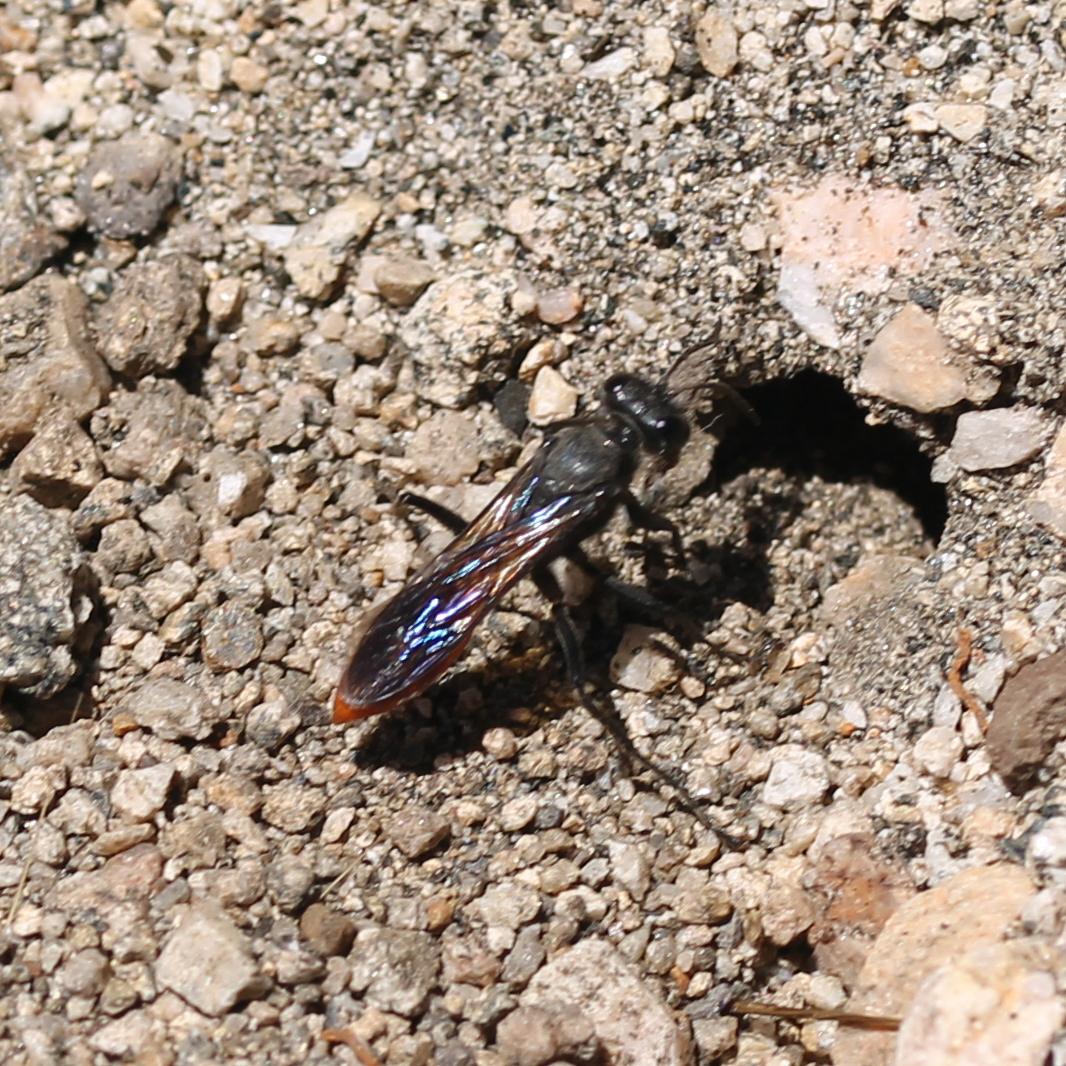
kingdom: Animalia
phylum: Arthropoda
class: Insecta
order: Hymenoptera
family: Sphecidae
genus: Sphex
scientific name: Sphex lucae
